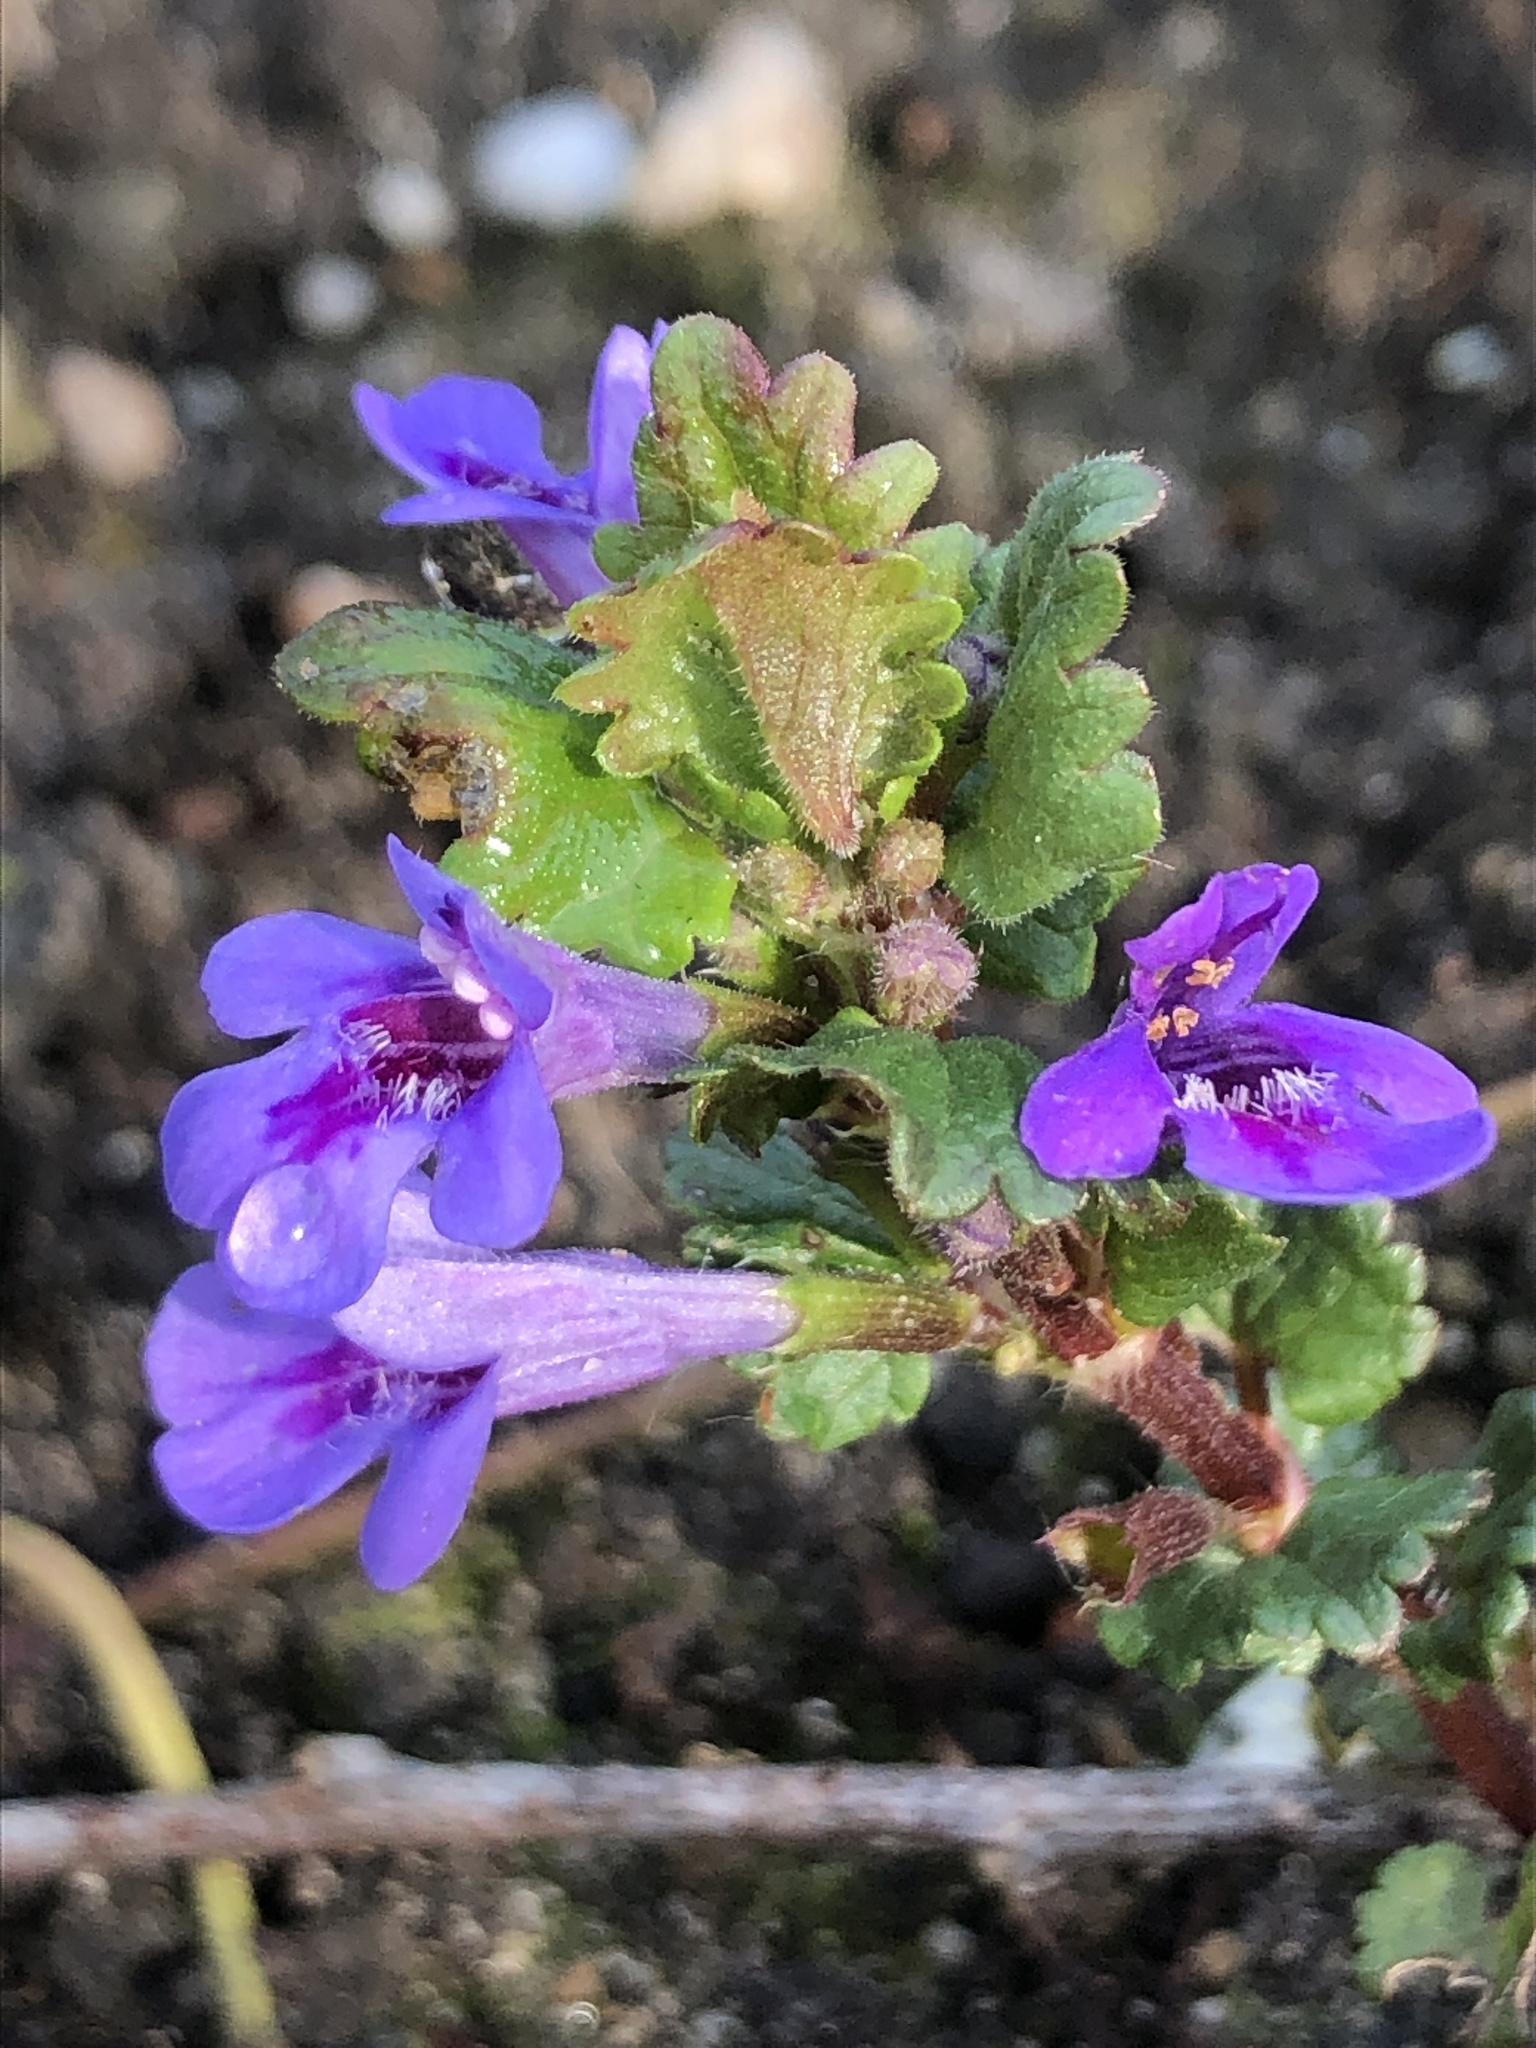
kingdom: Plantae
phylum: Tracheophyta
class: Magnoliopsida
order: Lamiales
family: Lamiaceae
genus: Glechoma
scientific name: Glechoma hederacea
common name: Ground ivy
